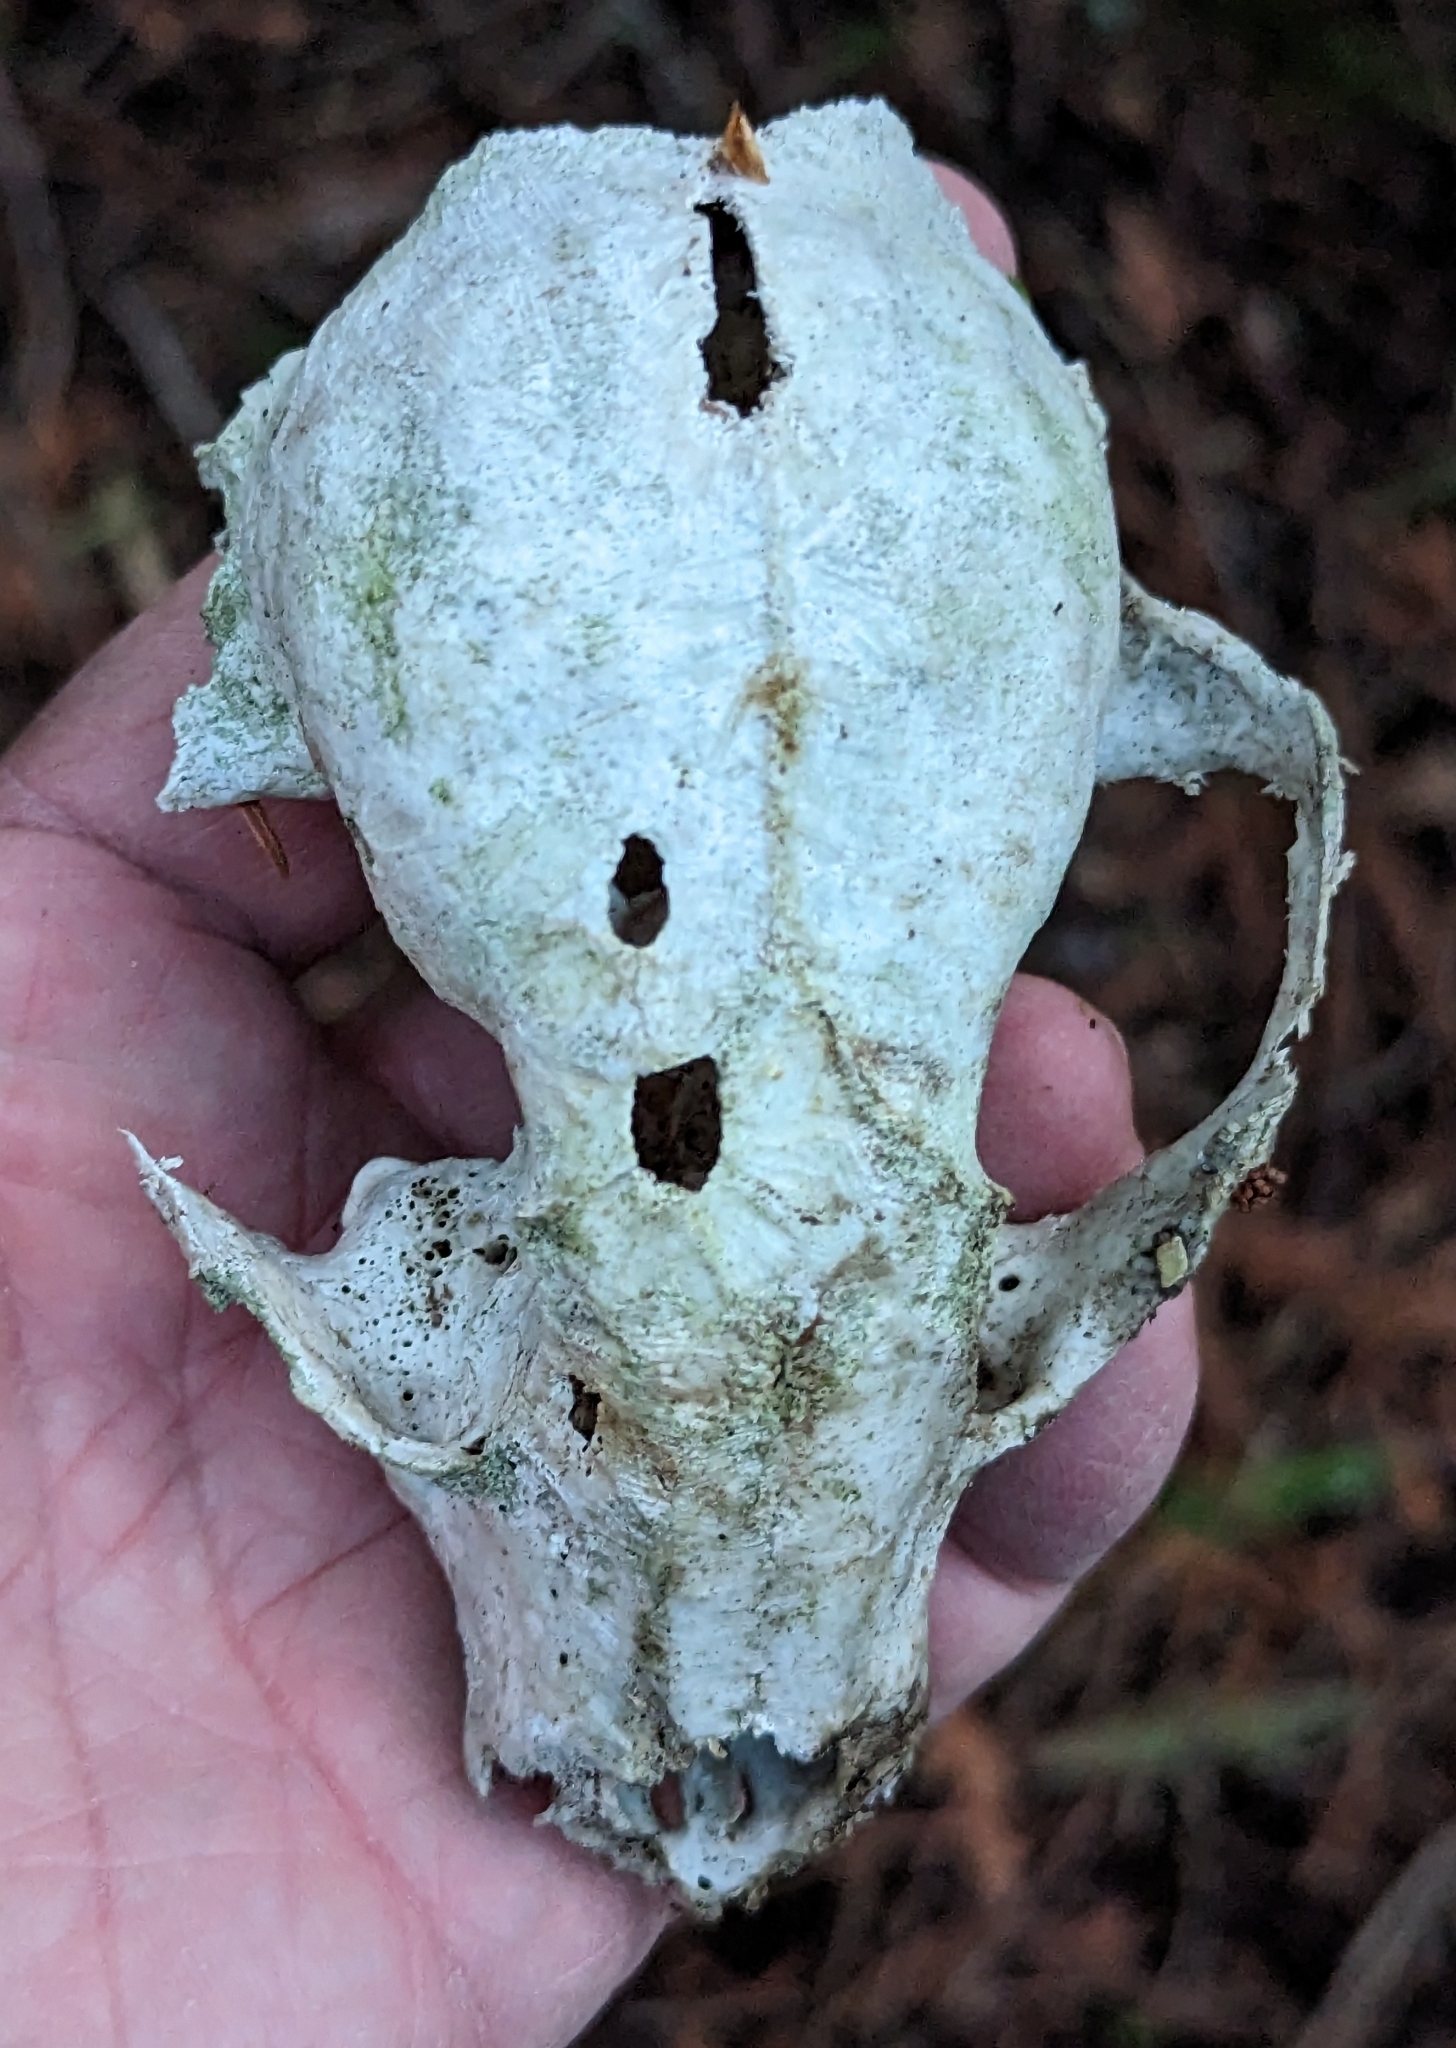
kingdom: Animalia
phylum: Chordata
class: Mammalia
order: Carnivora
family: Procyonidae
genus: Procyon
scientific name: Procyon lotor
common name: Raccoon
